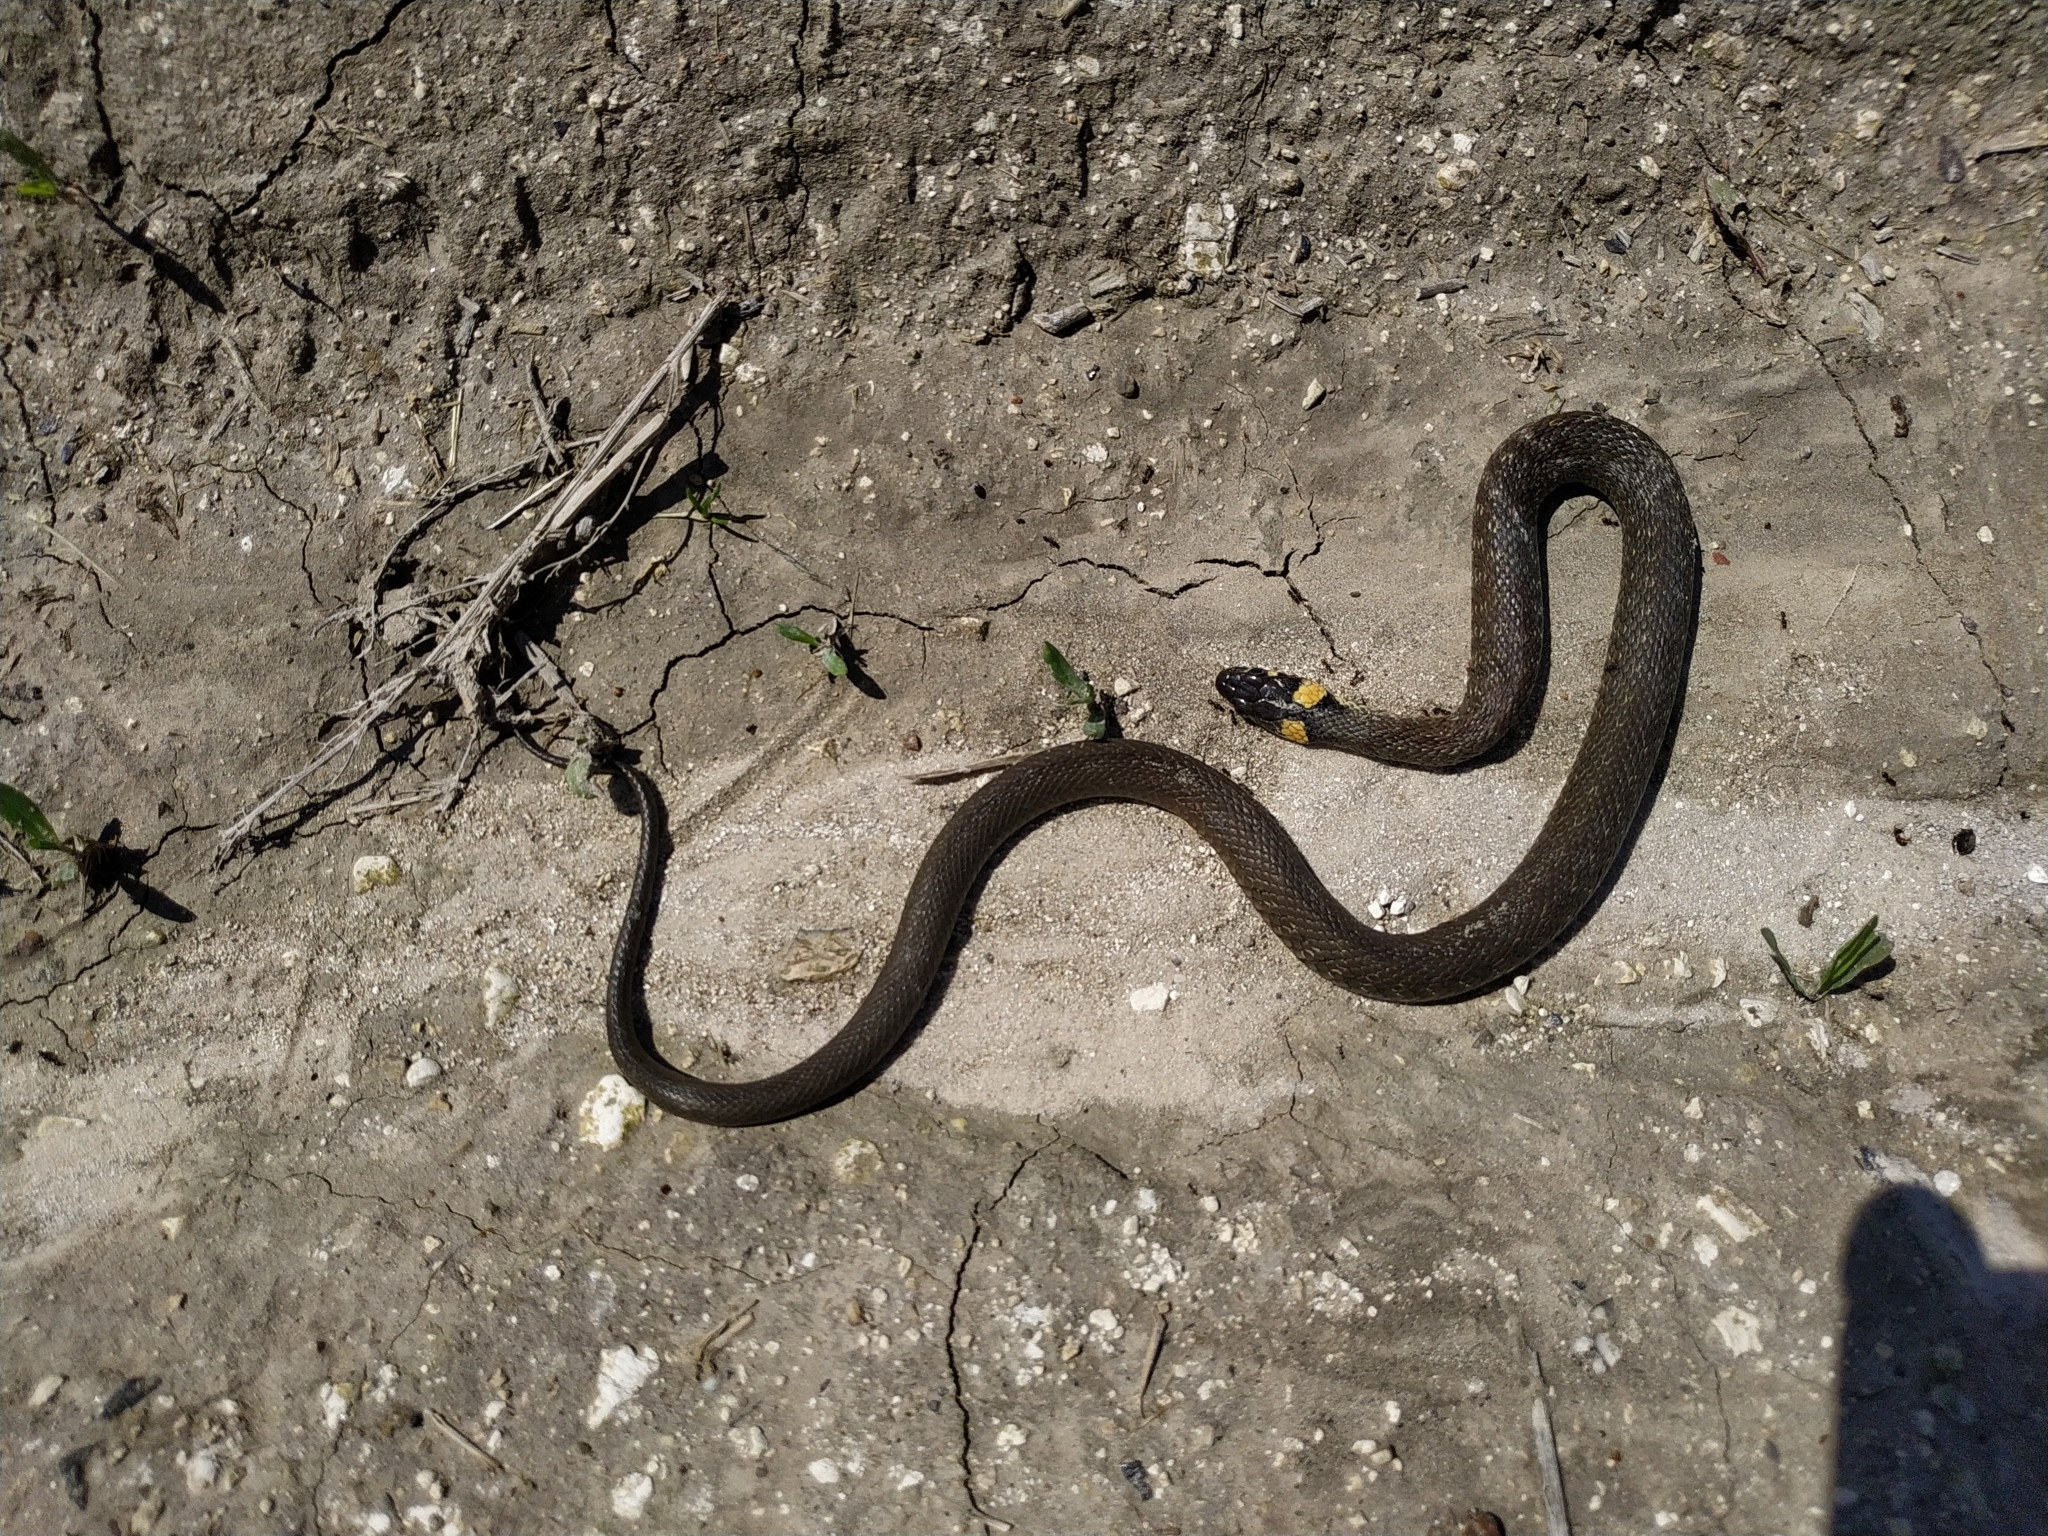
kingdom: Animalia
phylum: Chordata
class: Squamata
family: Colubridae
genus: Natrix
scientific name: Natrix natrix
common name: Grass snake
